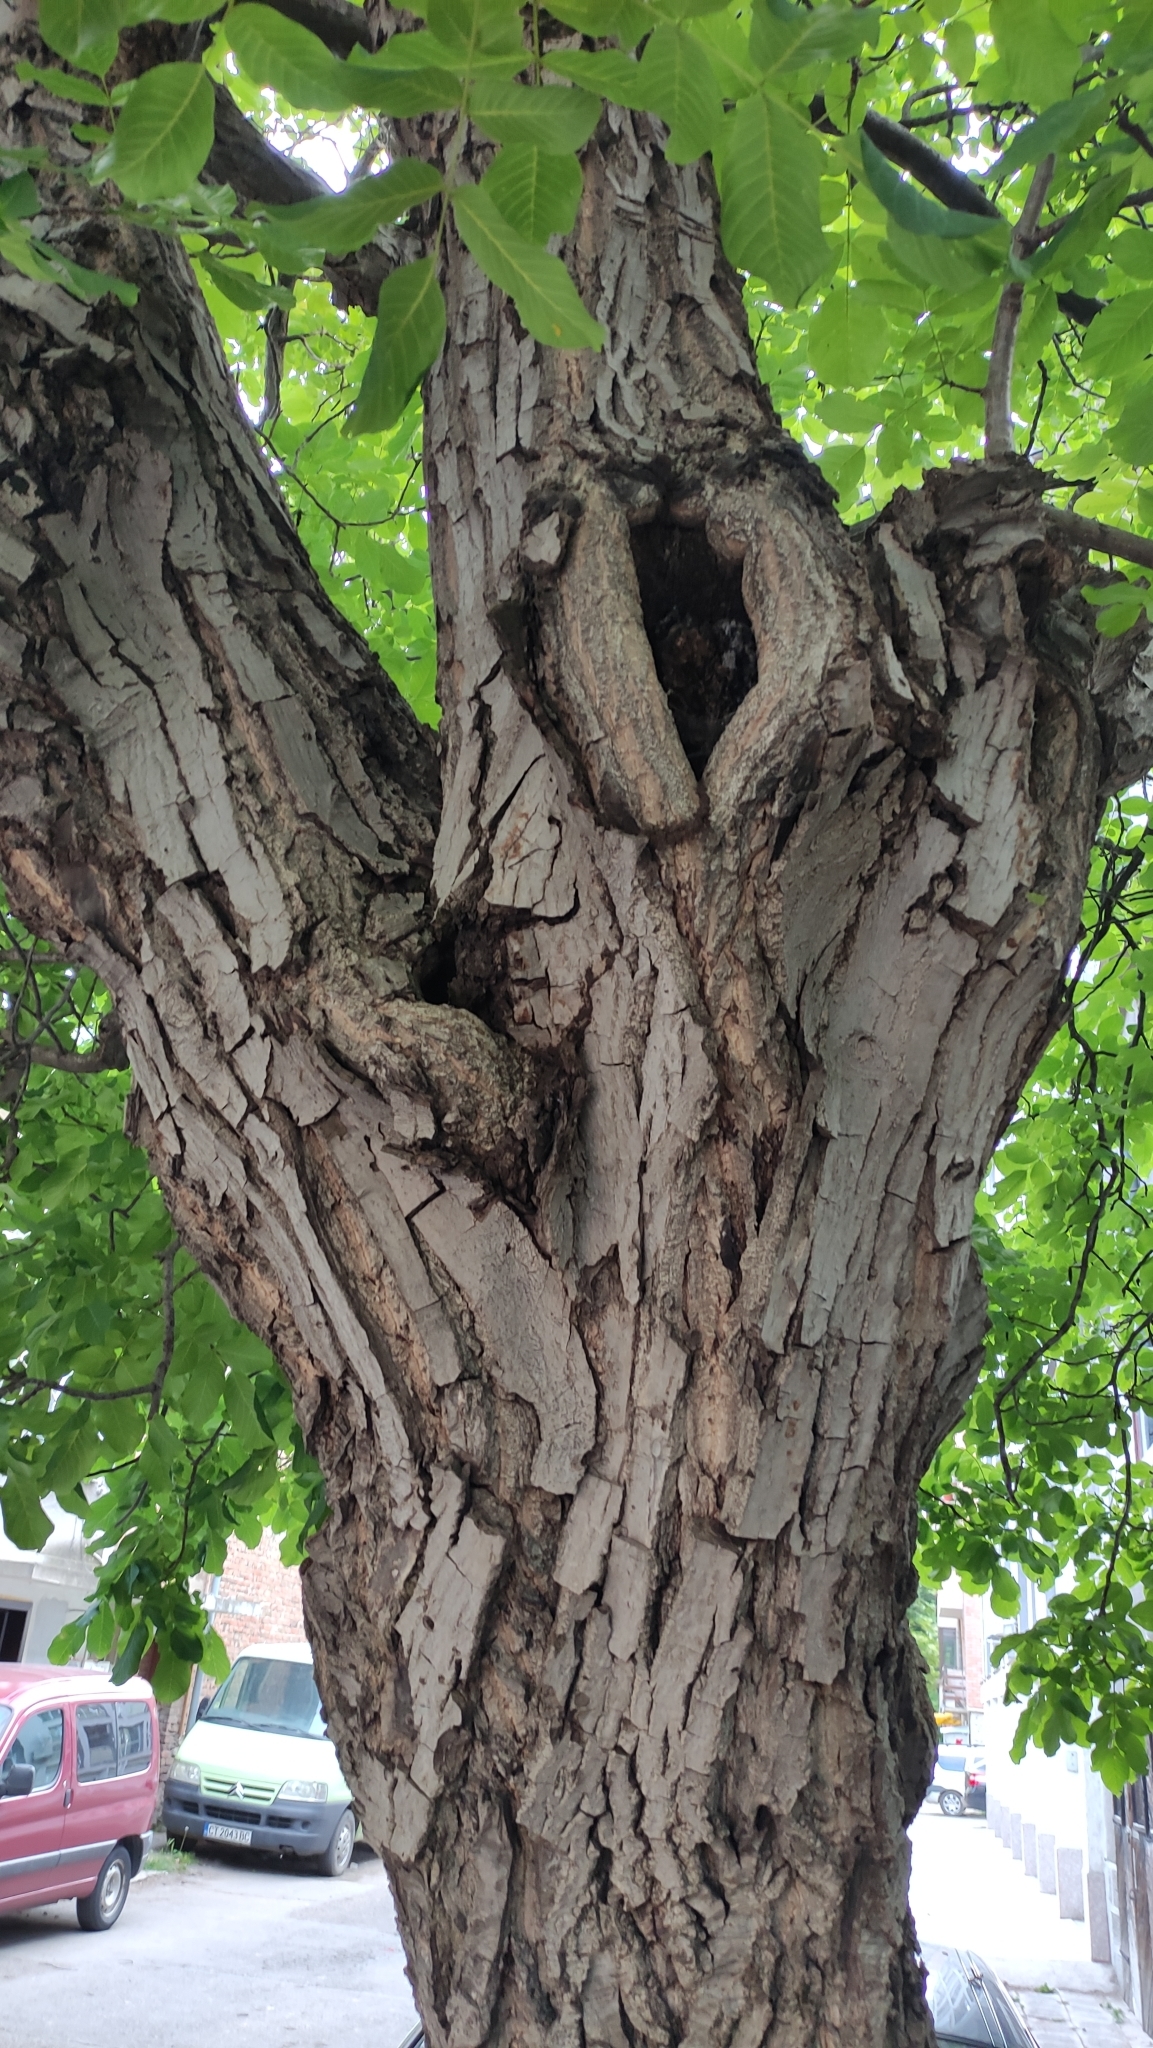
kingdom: Plantae
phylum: Tracheophyta
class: Magnoliopsida
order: Fagales
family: Juglandaceae
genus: Juglans
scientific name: Juglans regia
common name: Walnut
